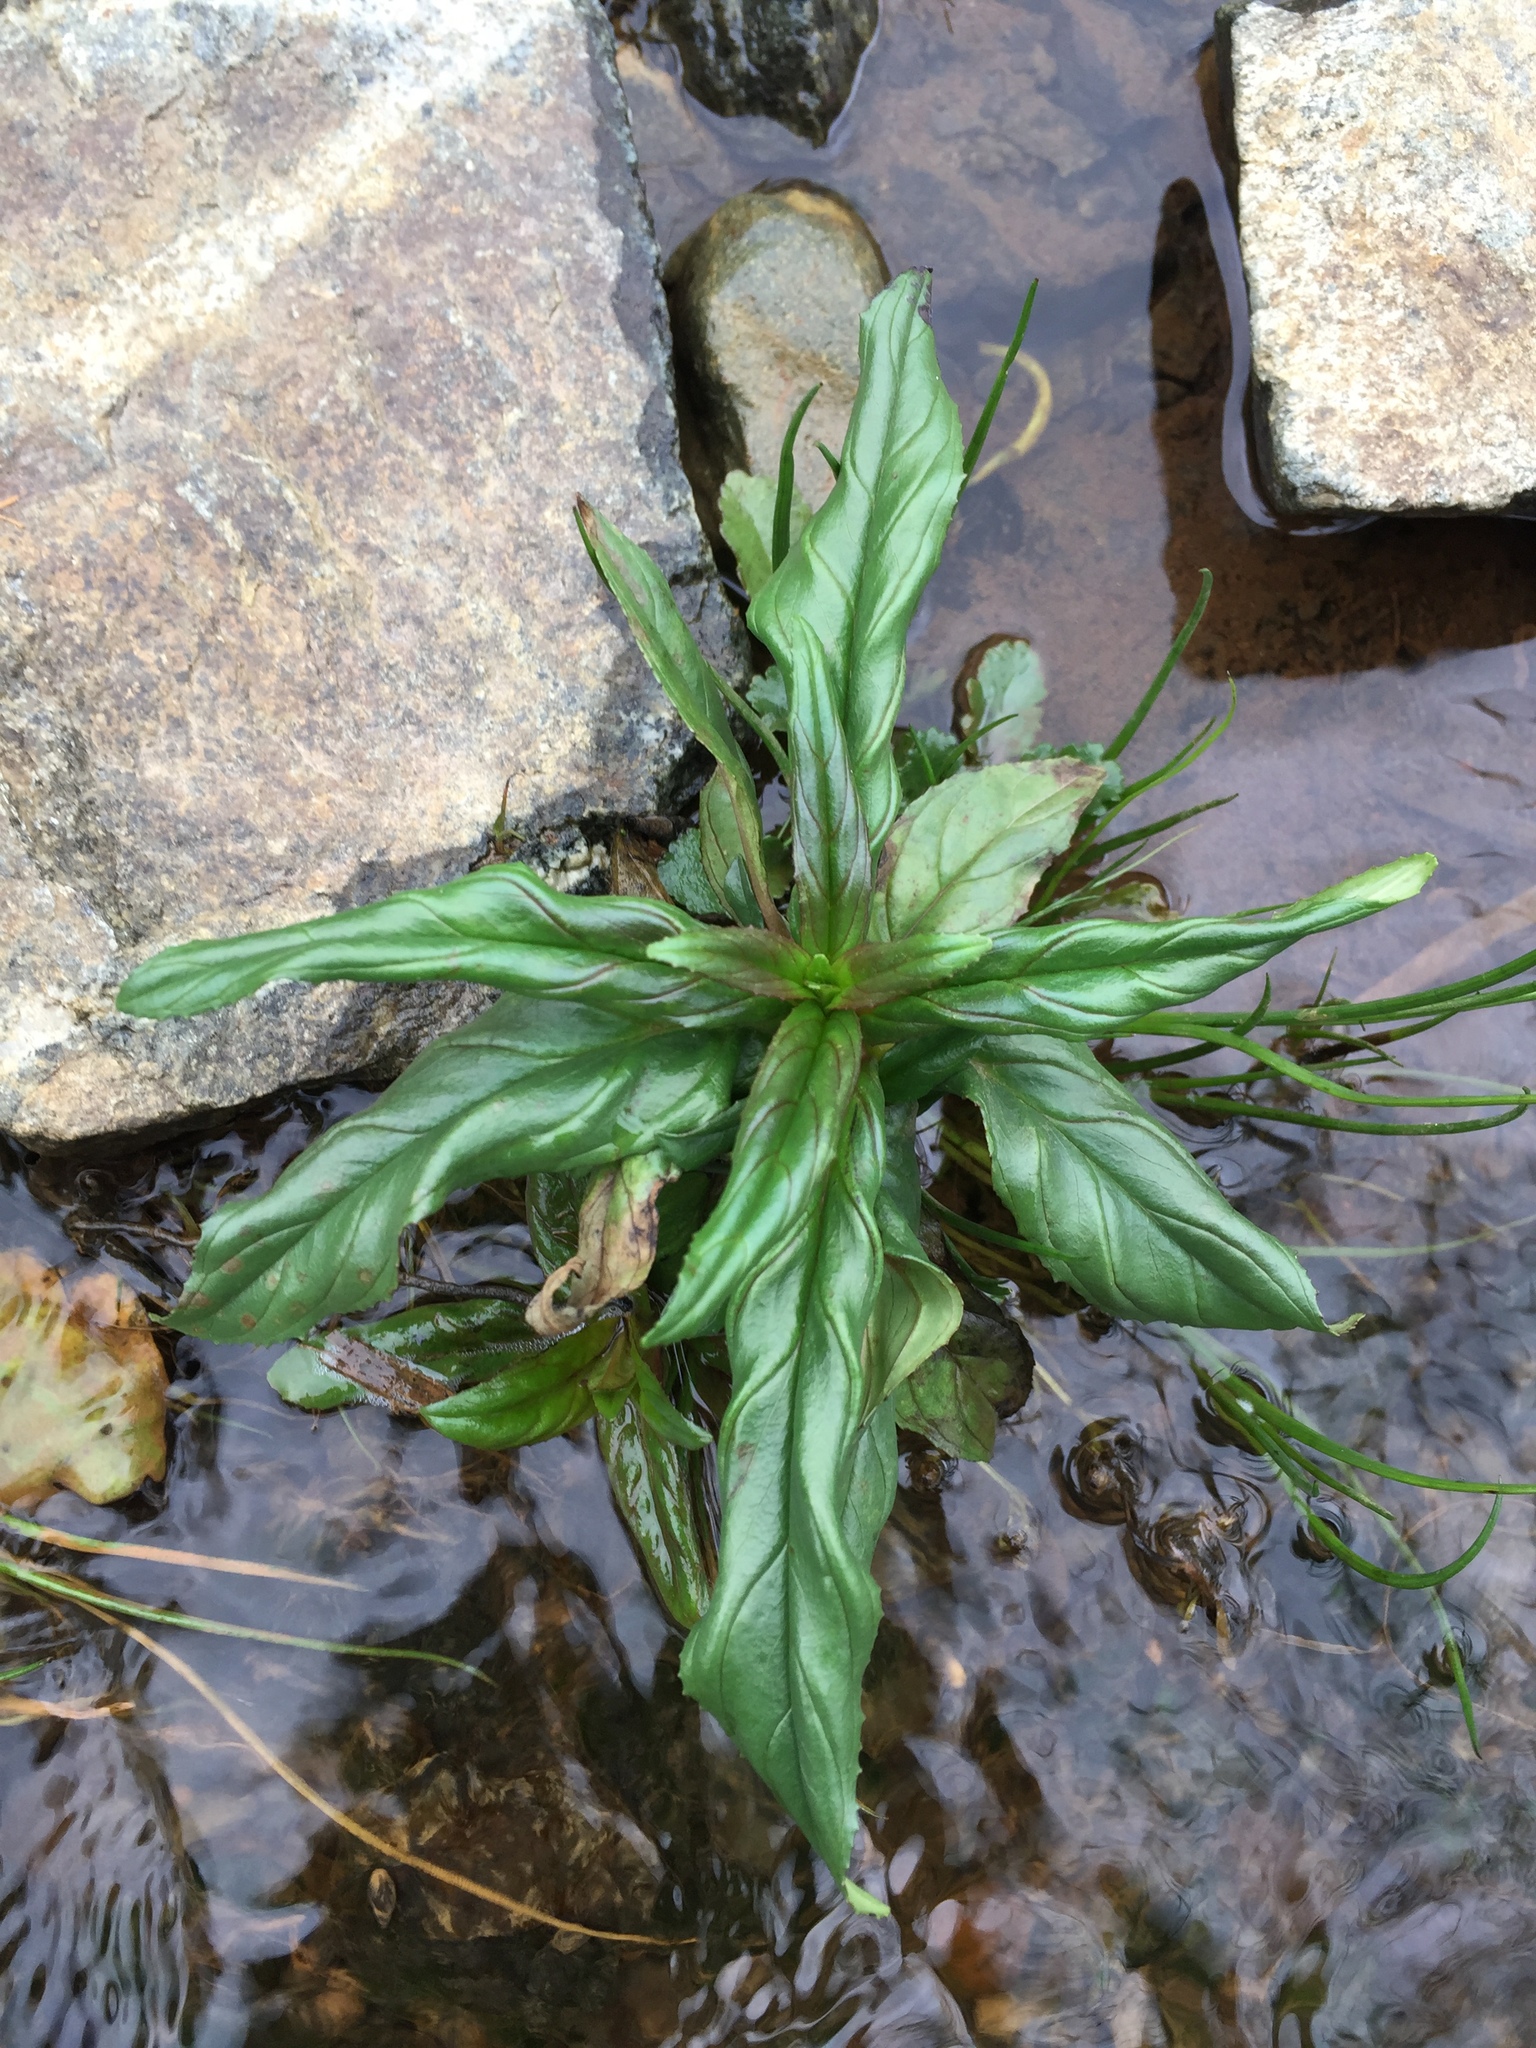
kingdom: Plantae
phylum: Tracheophyta
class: Magnoliopsida
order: Myrtales
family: Onagraceae
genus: Epilobium
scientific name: Epilobium ciliatum
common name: American willowherb
